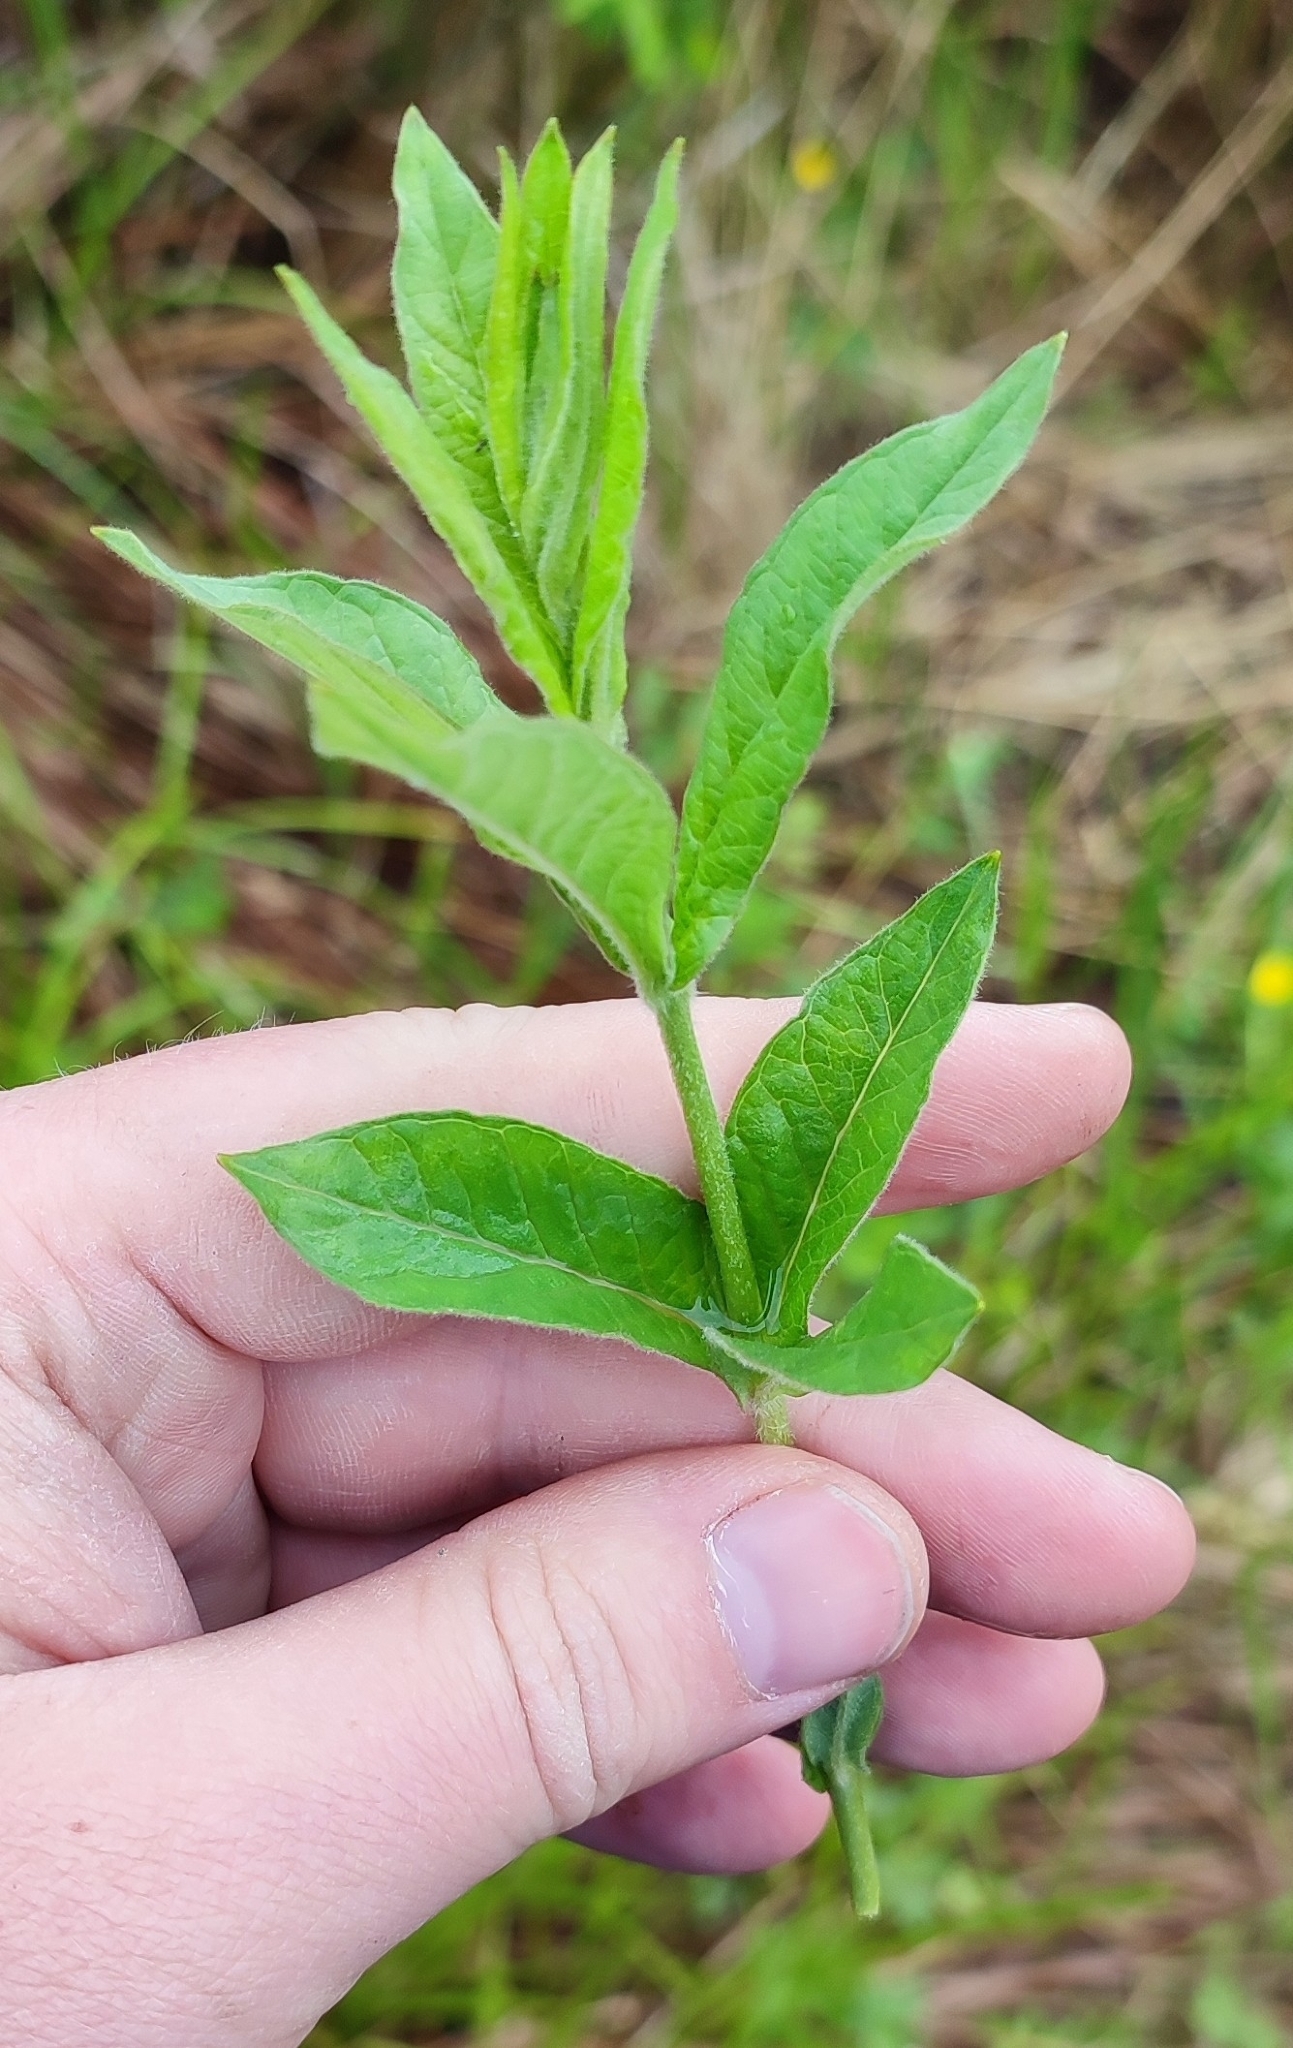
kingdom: Plantae
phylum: Tracheophyta
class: Magnoliopsida
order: Ericales
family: Primulaceae
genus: Lysimachia
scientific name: Lysimachia vulgaris
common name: Yellow loosestrife
